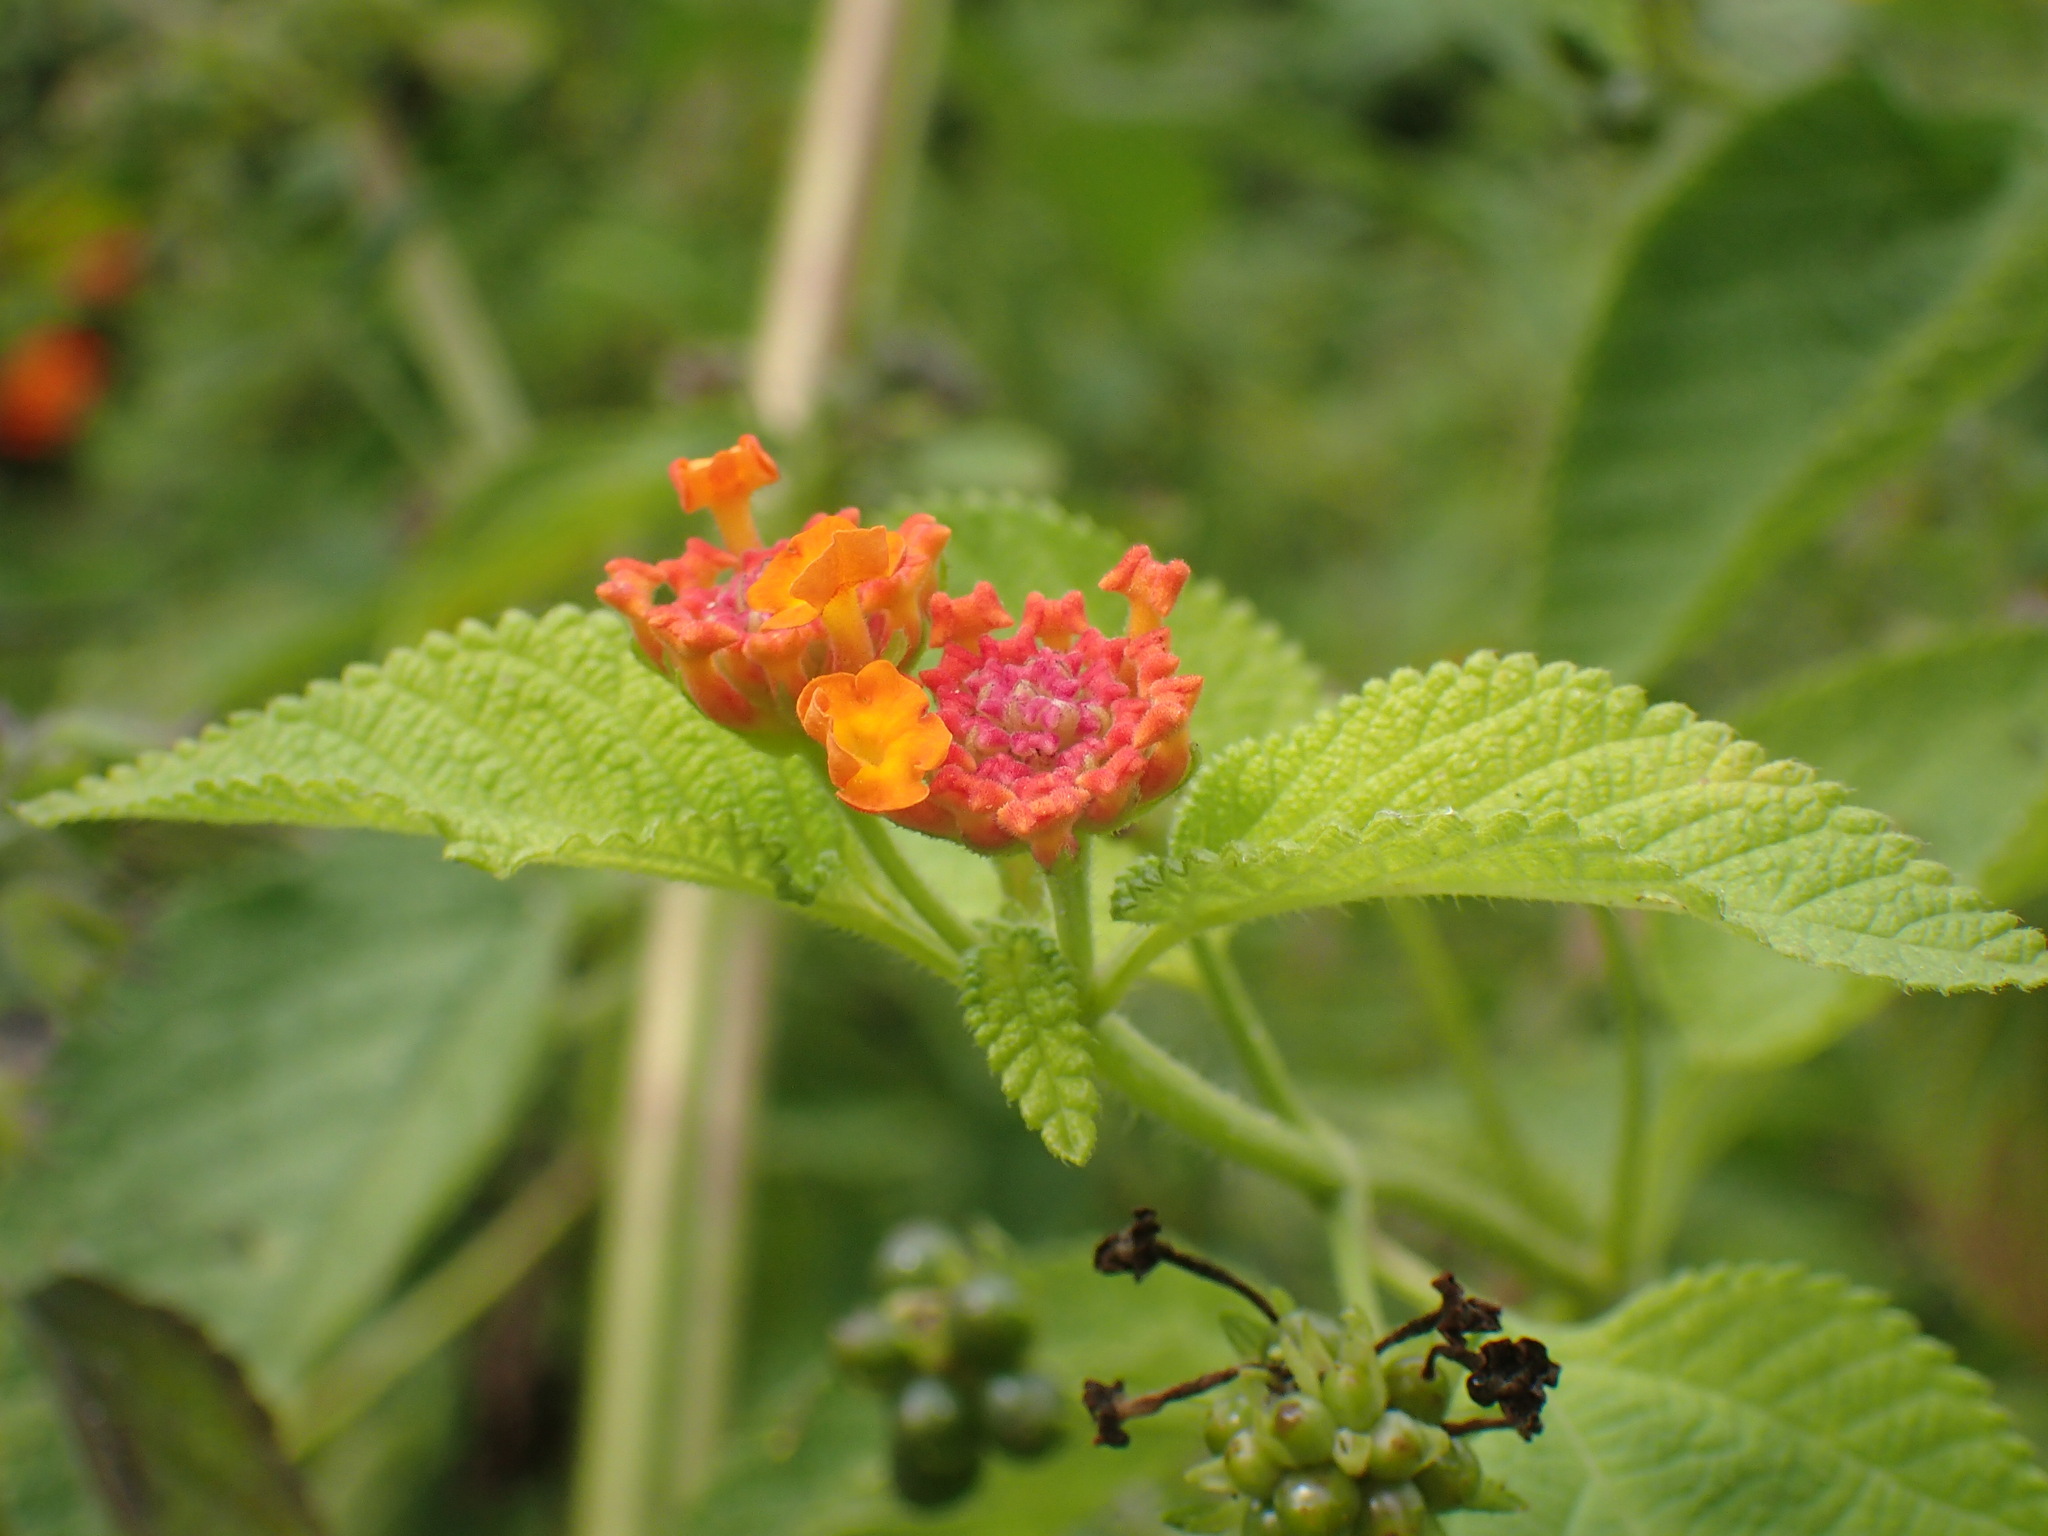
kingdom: Plantae
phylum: Tracheophyta
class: Magnoliopsida
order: Lamiales
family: Verbenaceae
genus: Lantana
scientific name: Lantana camara
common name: Lantana
